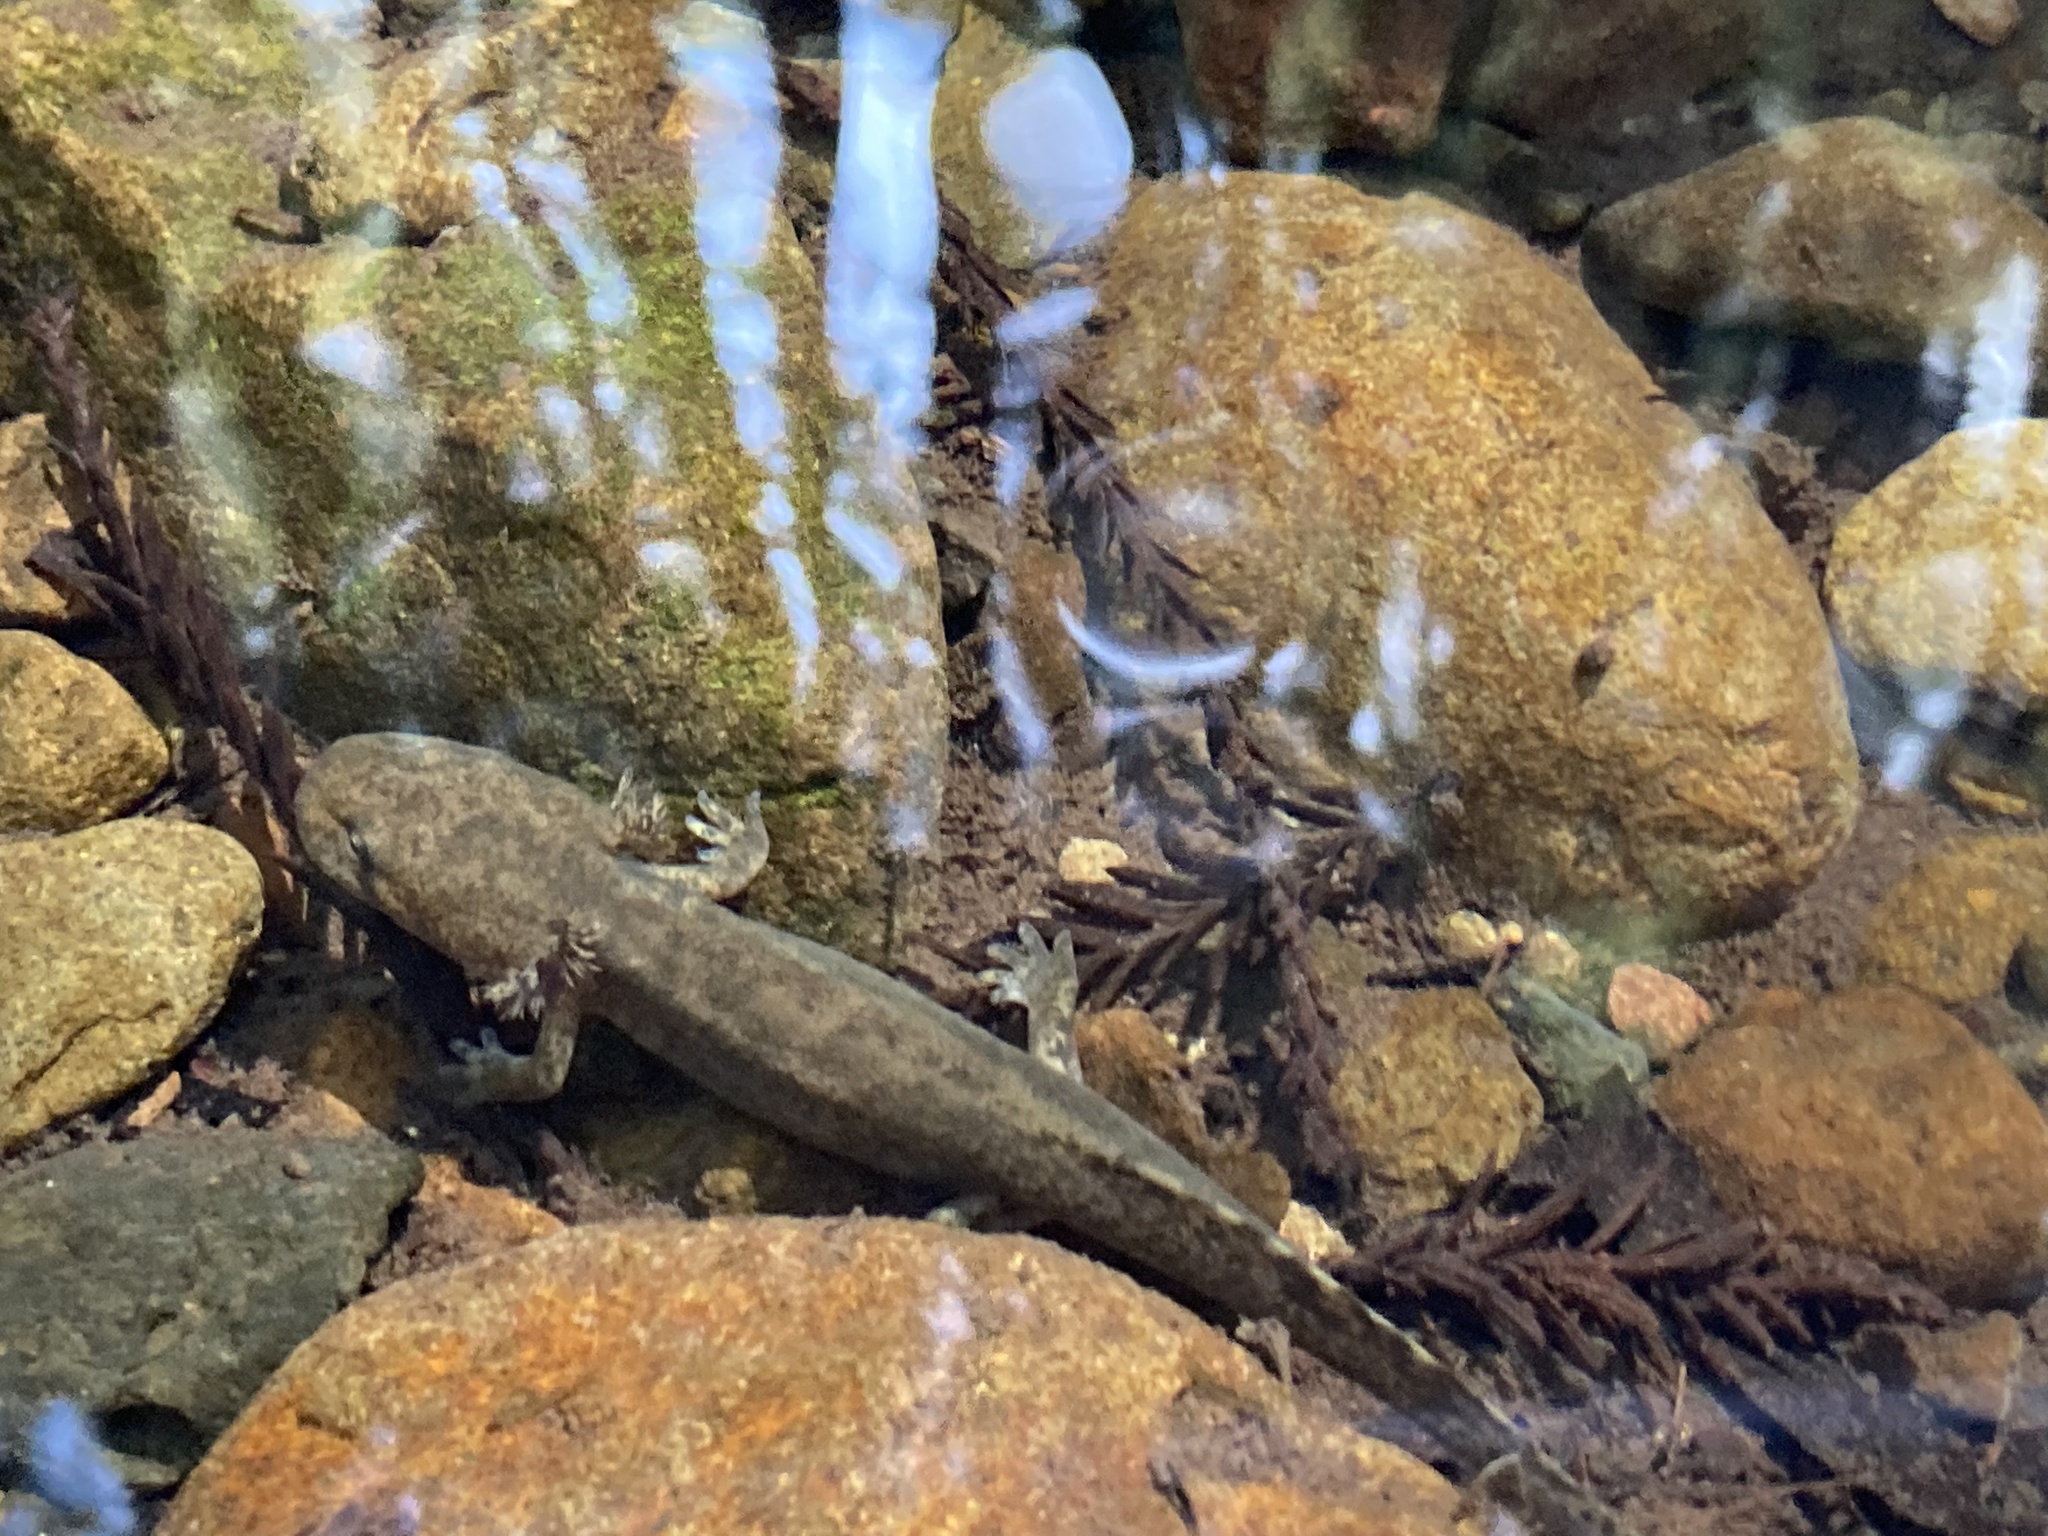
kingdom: Animalia
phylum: Chordata
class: Amphibia
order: Caudata
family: Ambystomatidae
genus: Dicamptodon
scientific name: Dicamptodon ensatus
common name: California giant salamander
